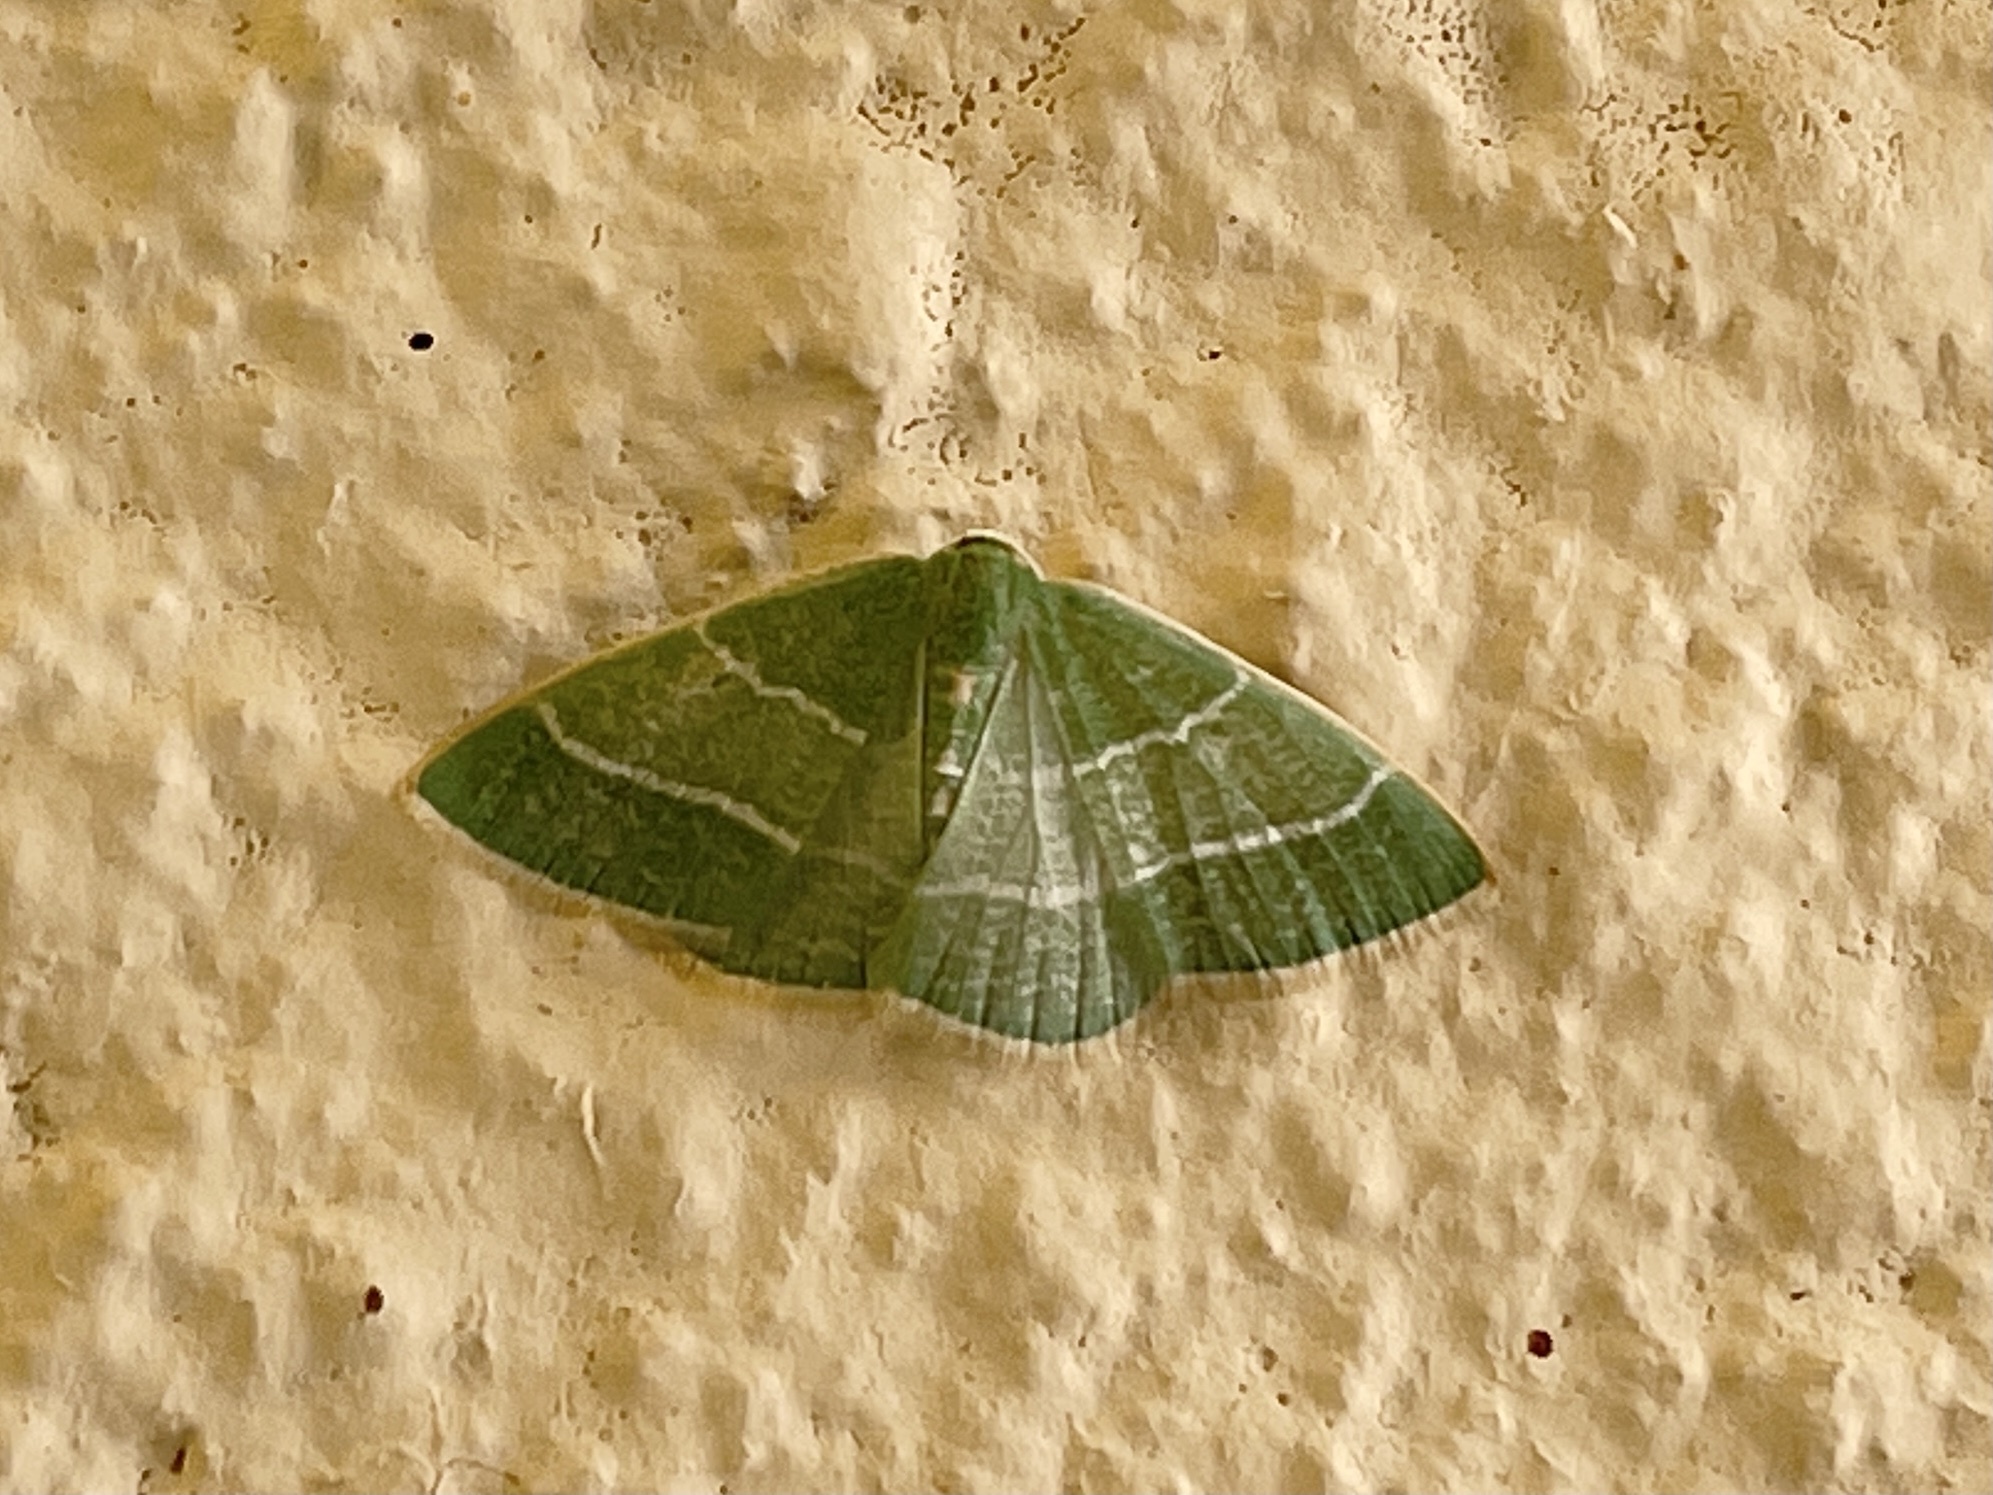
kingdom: Animalia
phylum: Arthropoda
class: Insecta
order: Lepidoptera
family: Geometridae
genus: Nemoria
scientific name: Nemoria caerulescens
